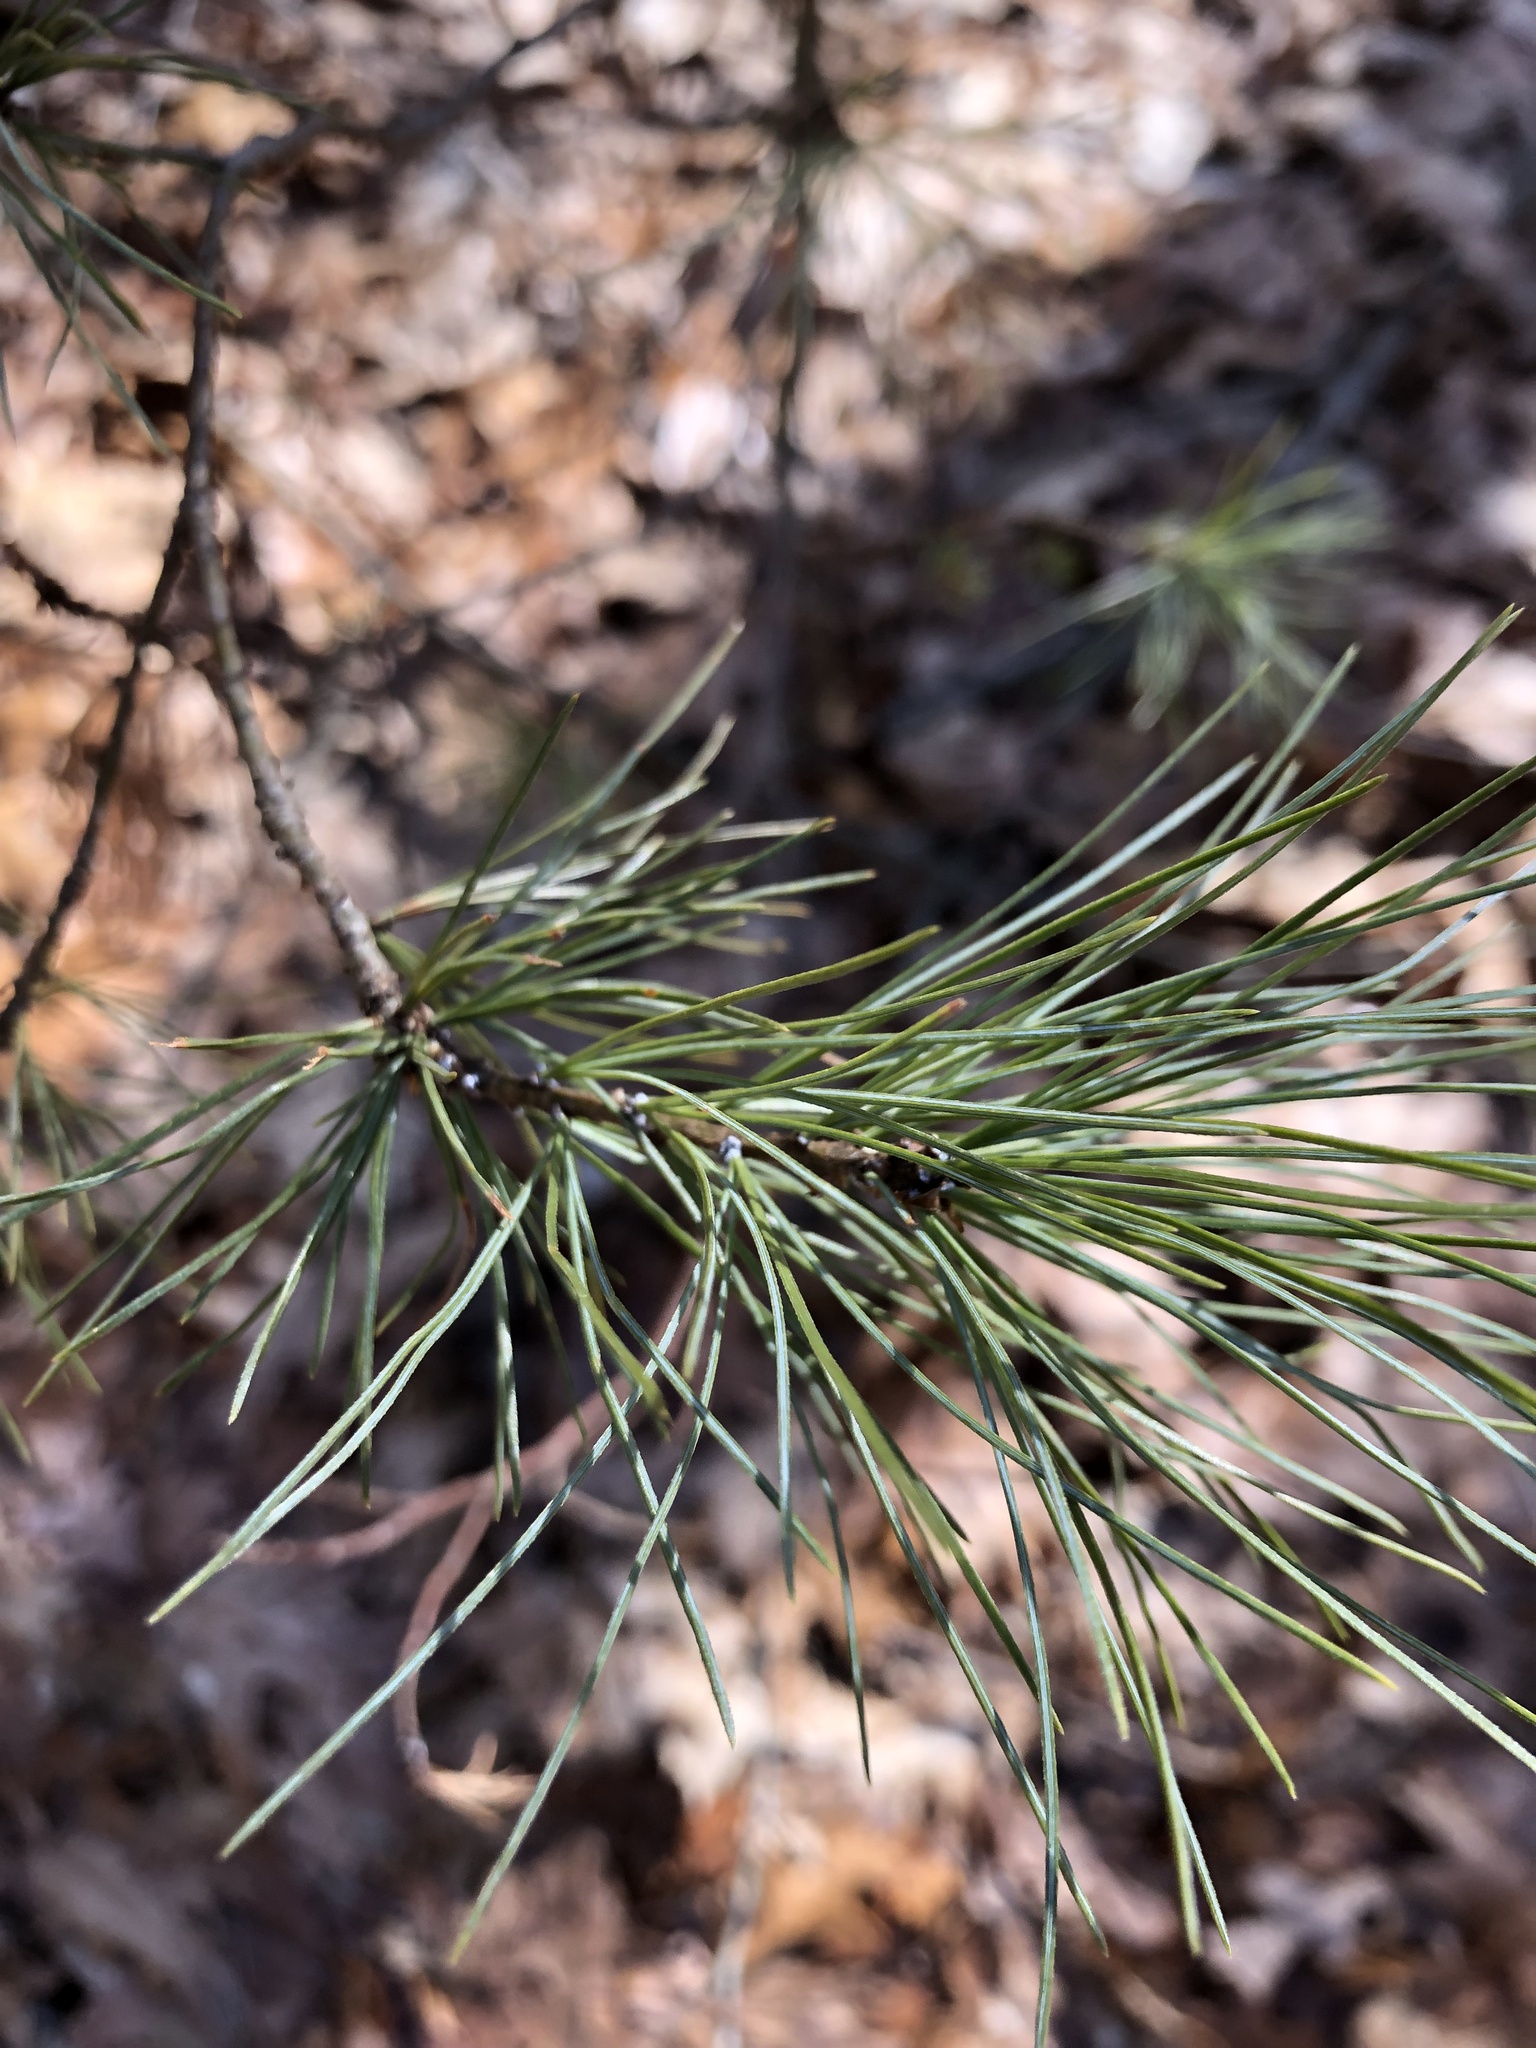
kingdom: Plantae
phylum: Tracheophyta
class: Pinopsida
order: Pinales
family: Pinaceae
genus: Pinus
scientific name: Pinus strobus
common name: Weymouth pine
